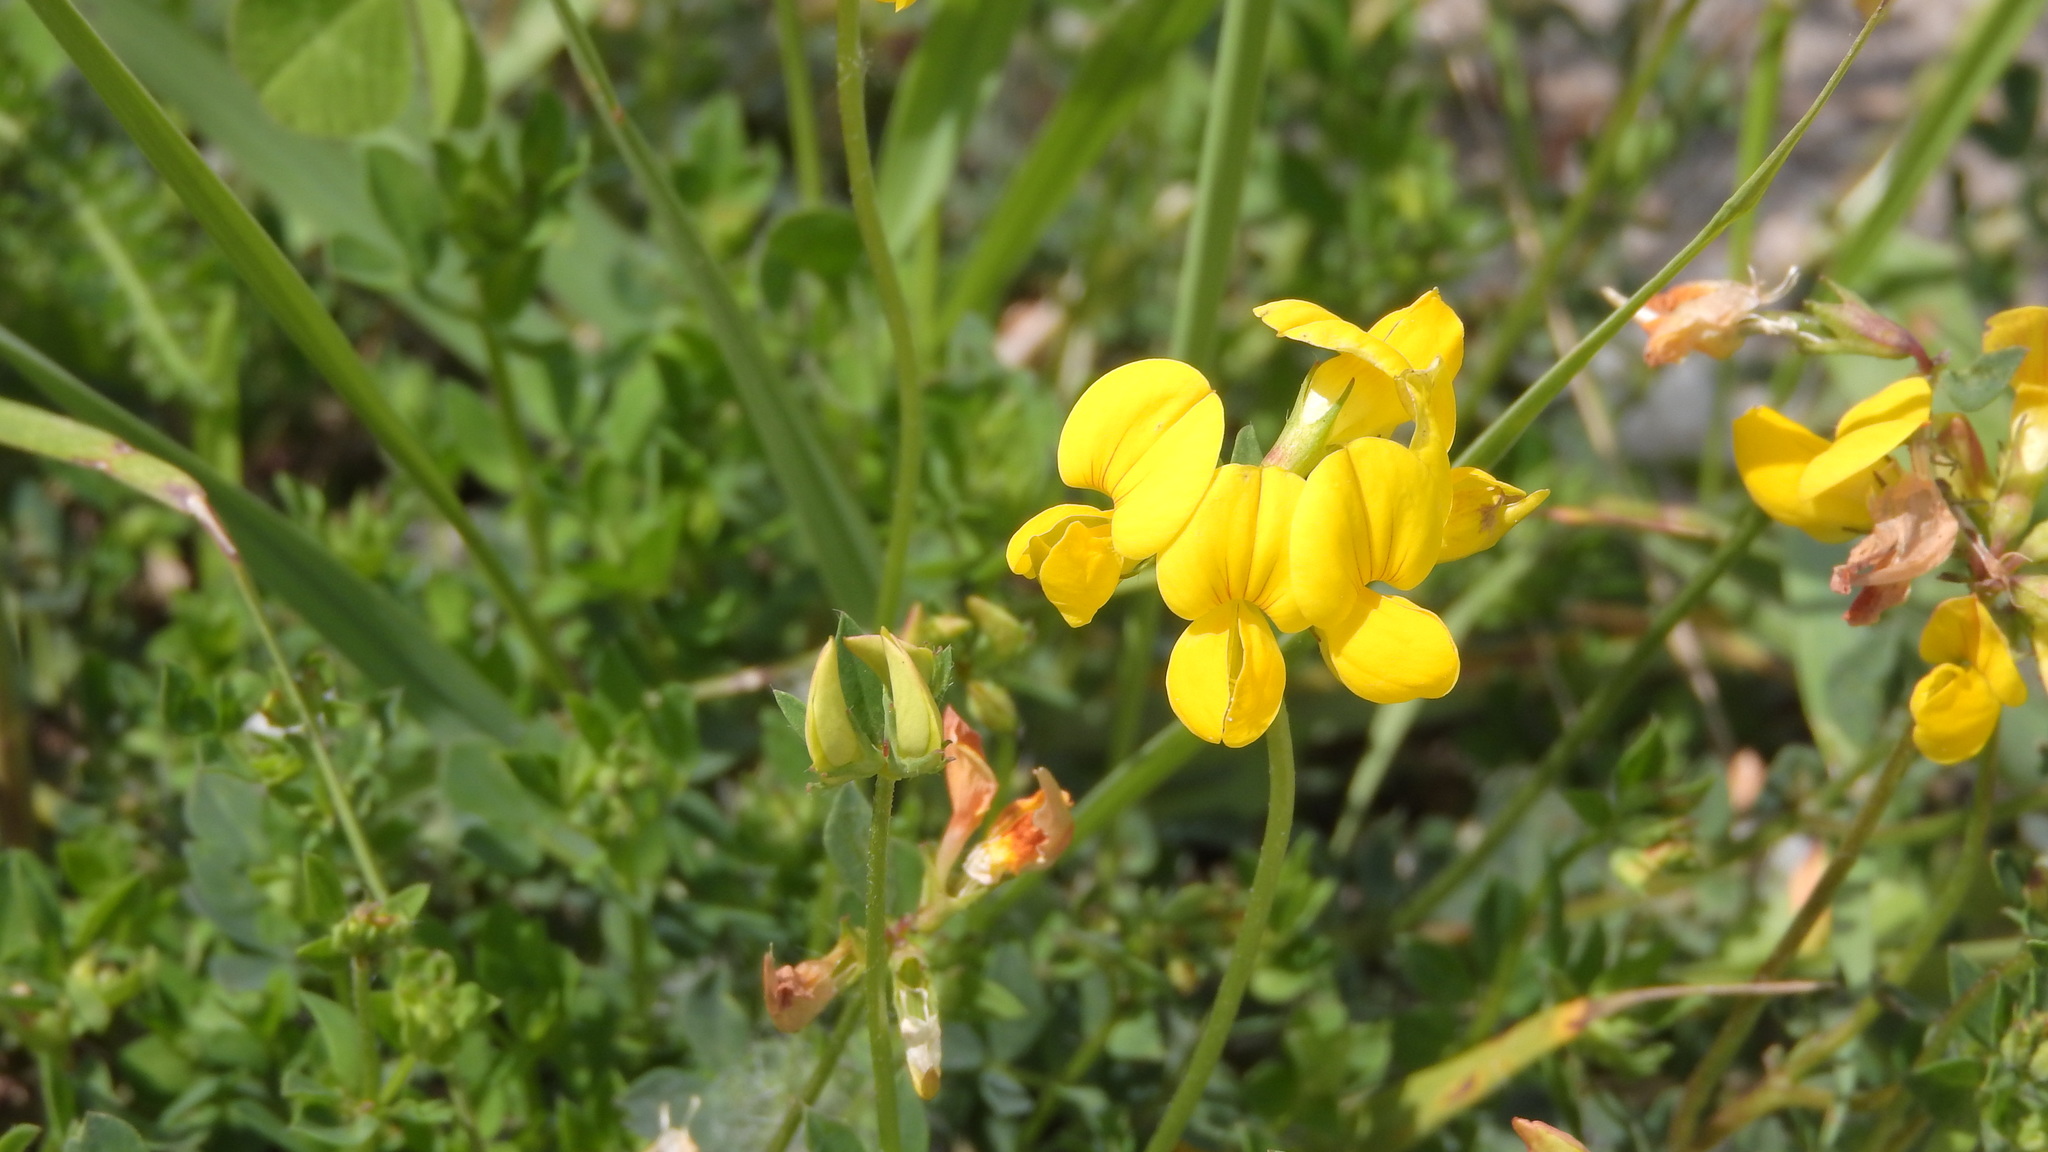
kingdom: Plantae
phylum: Tracheophyta
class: Magnoliopsida
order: Fabales
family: Fabaceae
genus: Lotus
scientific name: Lotus corniculatus
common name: Common bird's-foot-trefoil
